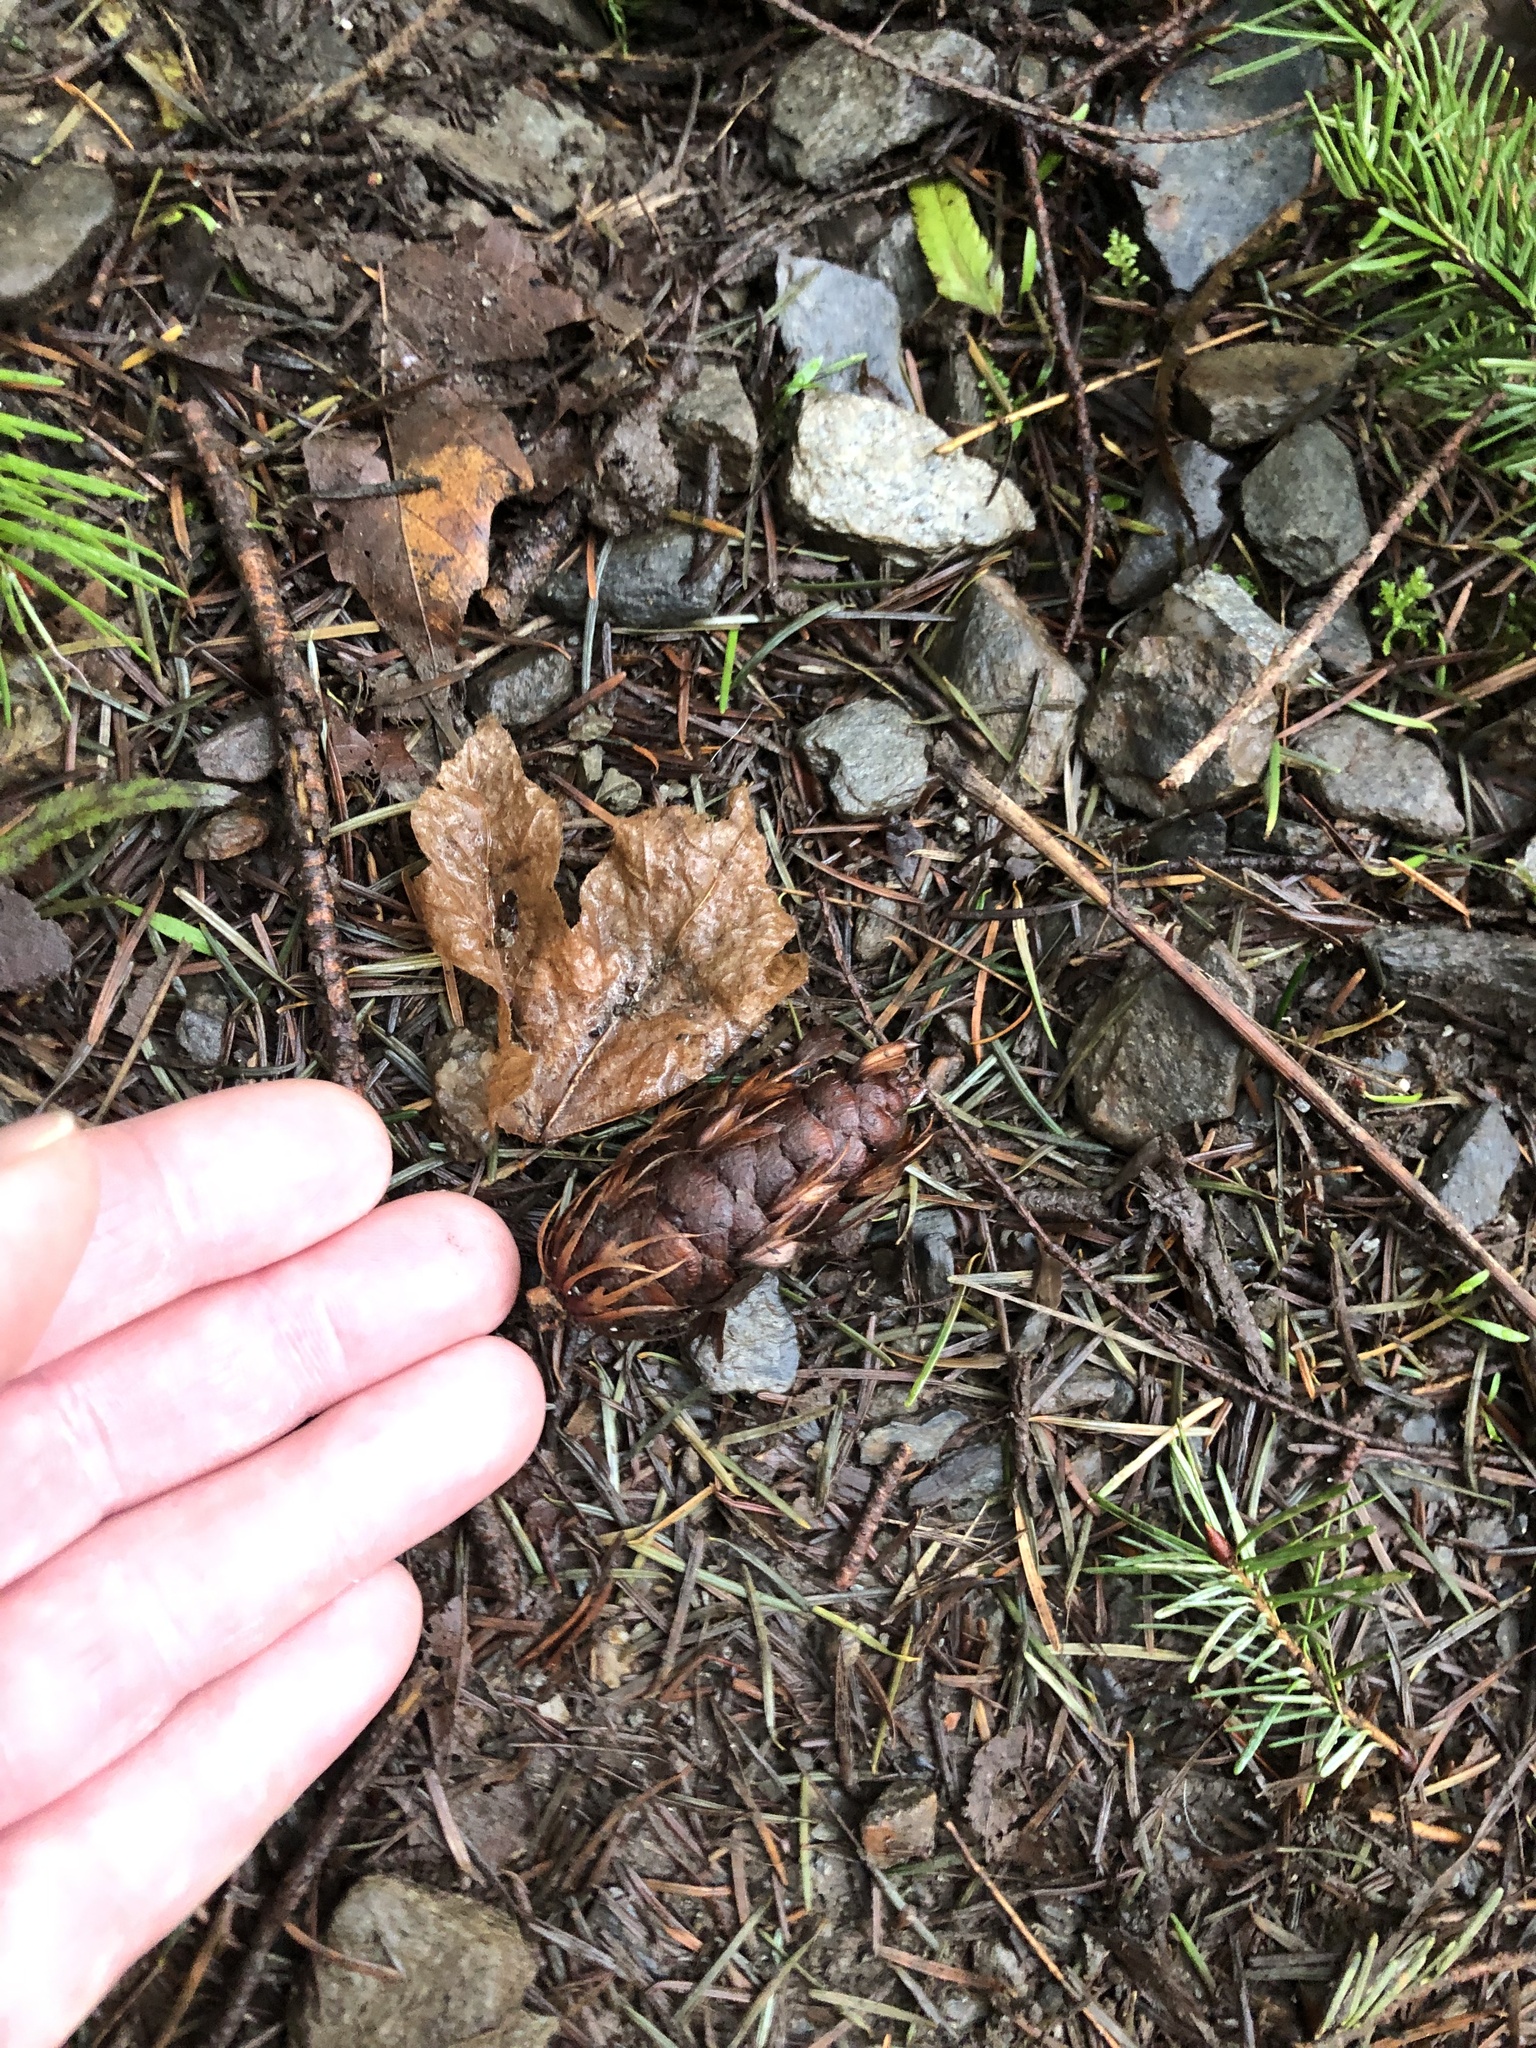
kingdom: Plantae
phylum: Tracheophyta
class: Pinopsida
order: Pinales
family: Pinaceae
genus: Pseudotsuga
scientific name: Pseudotsuga menziesii
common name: Douglas fir
